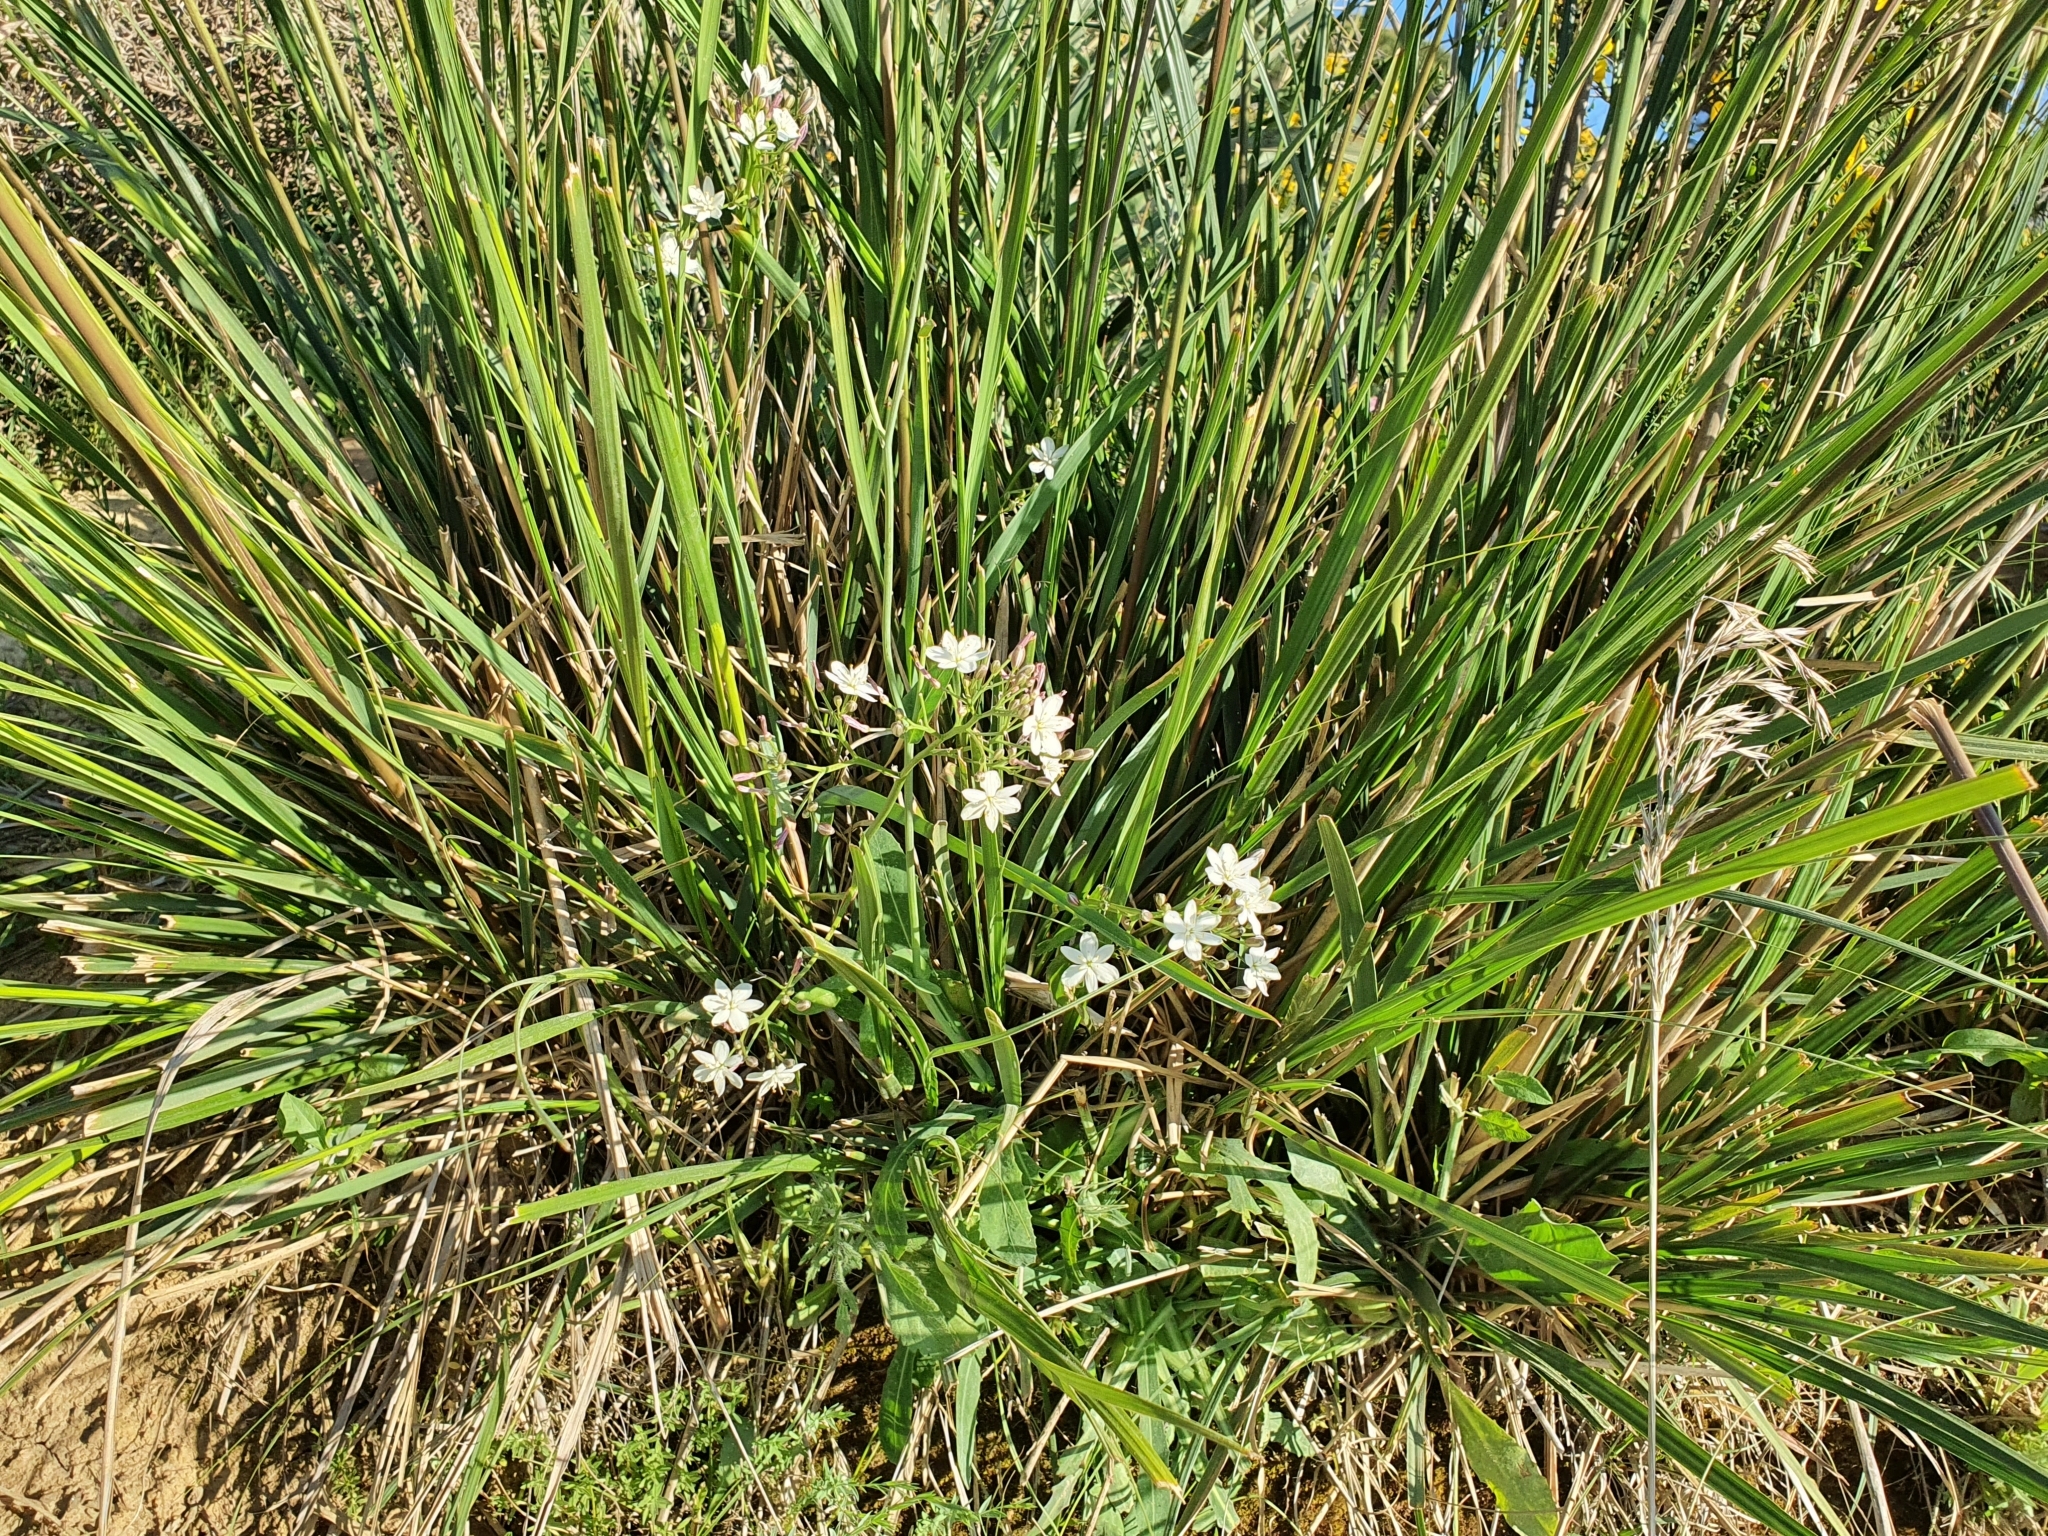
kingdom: Plantae
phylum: Tracheophyta
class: Liliopsida
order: Asparagales
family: Asphodelaceae
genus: Simethis
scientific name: Simethis mattiazzii
